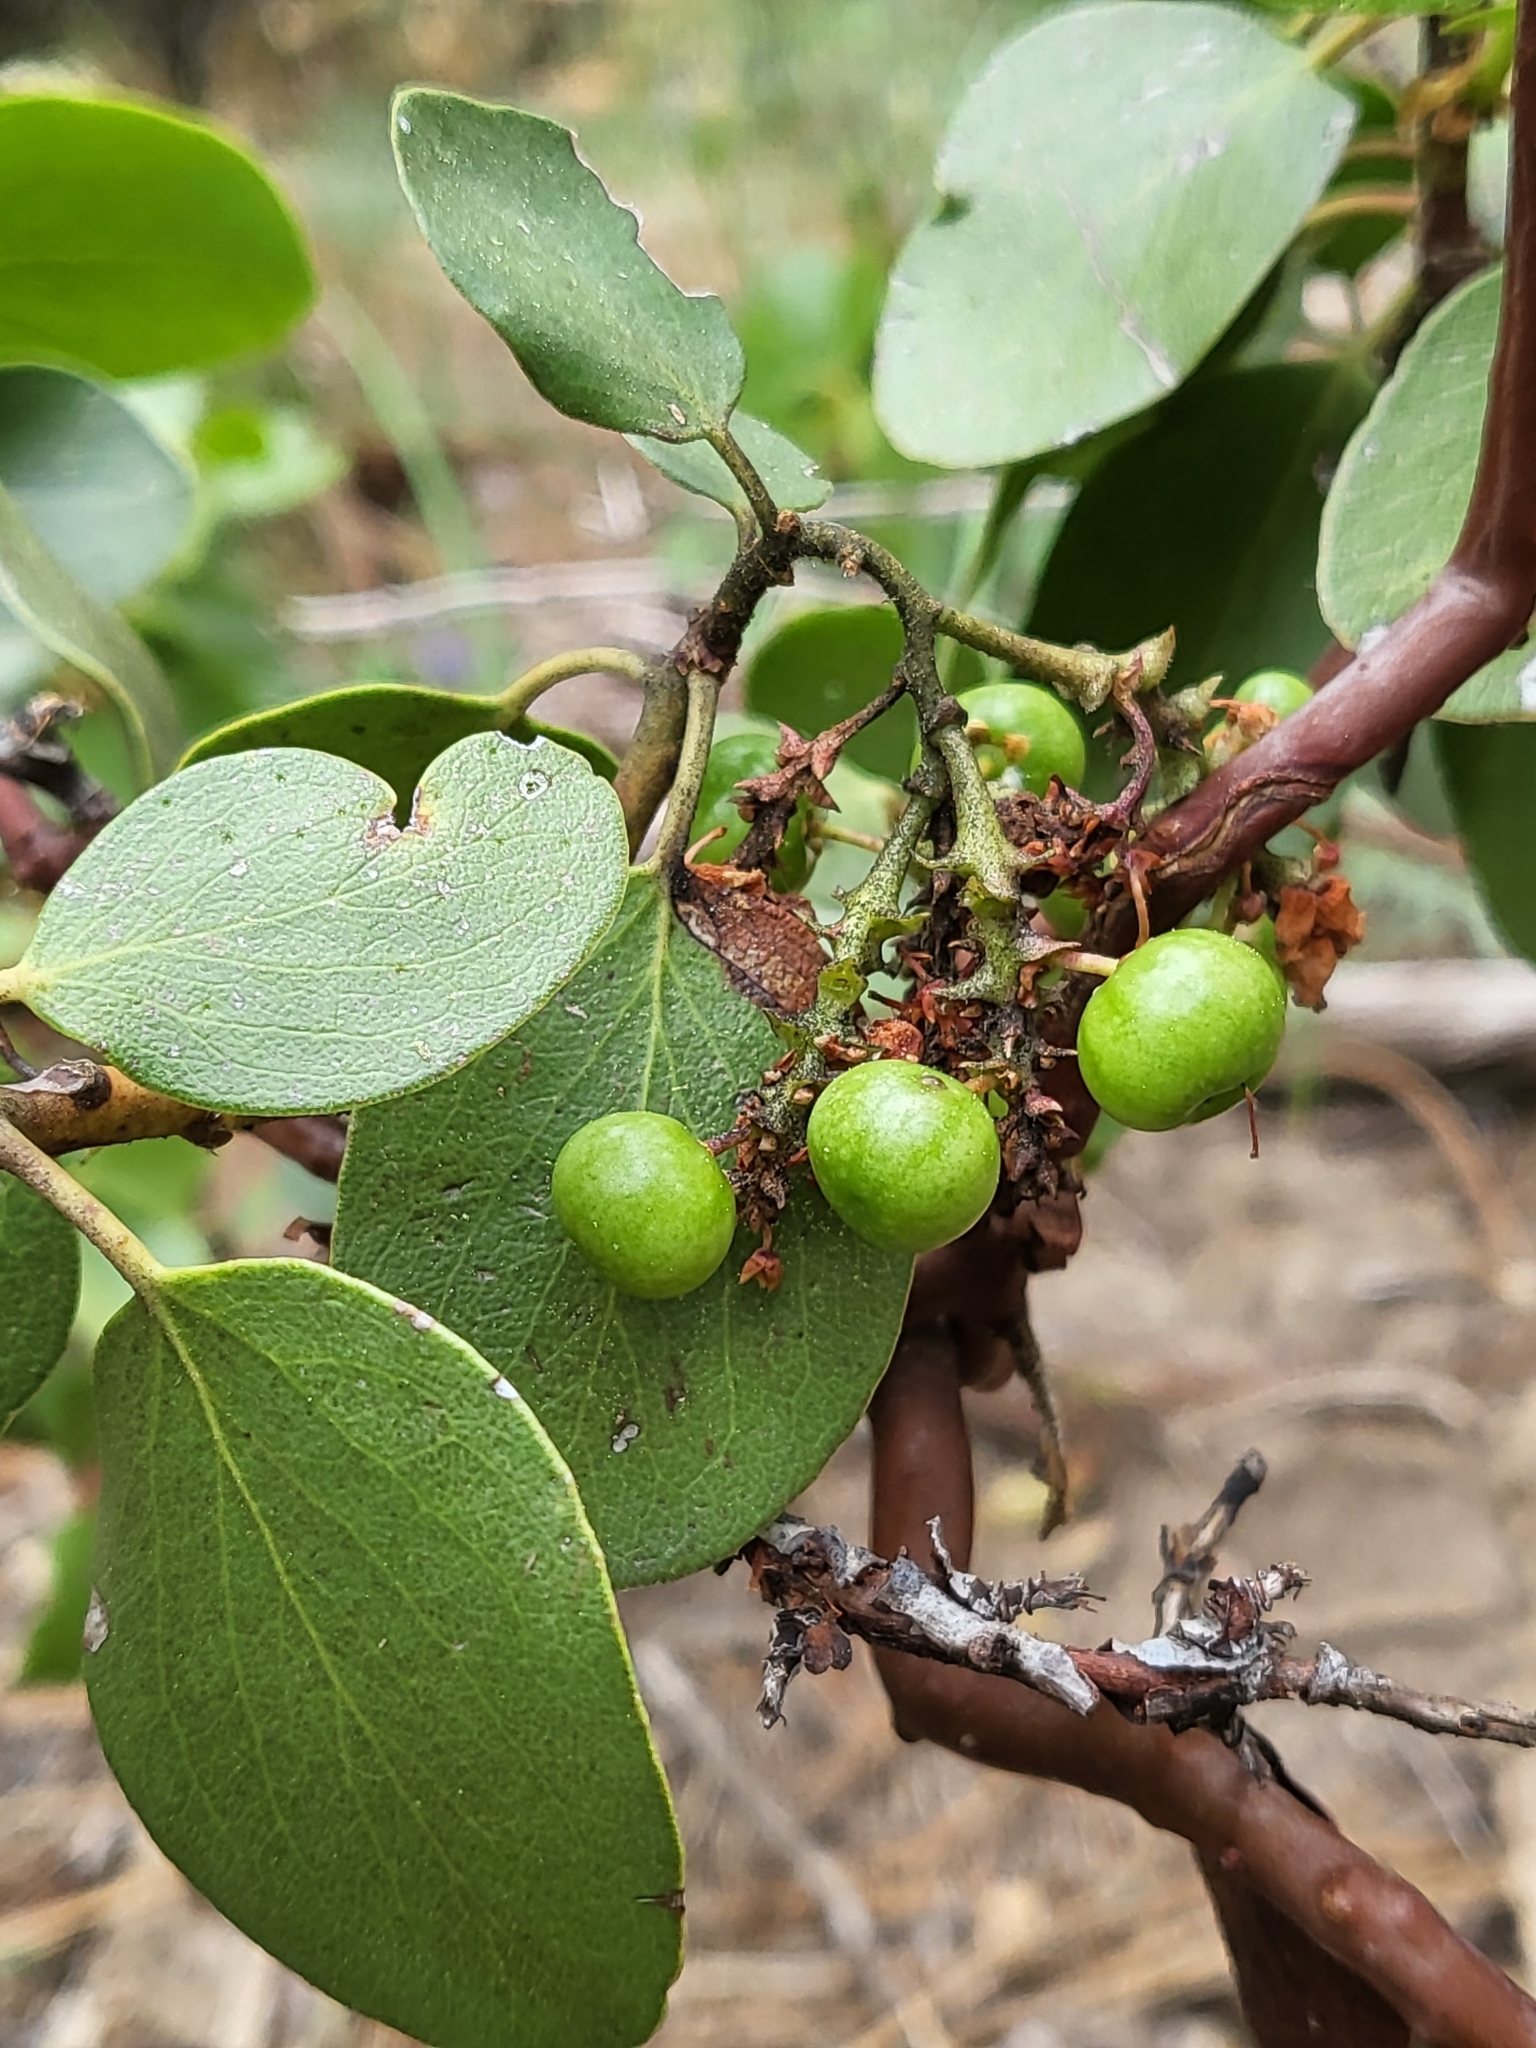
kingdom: Plantae
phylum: Tracheophyta
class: Magnoliopsida
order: Ericales
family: Ericaceae
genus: Arctostaphylos
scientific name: Arctostaphylos patula
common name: Green-leaf manzanita
